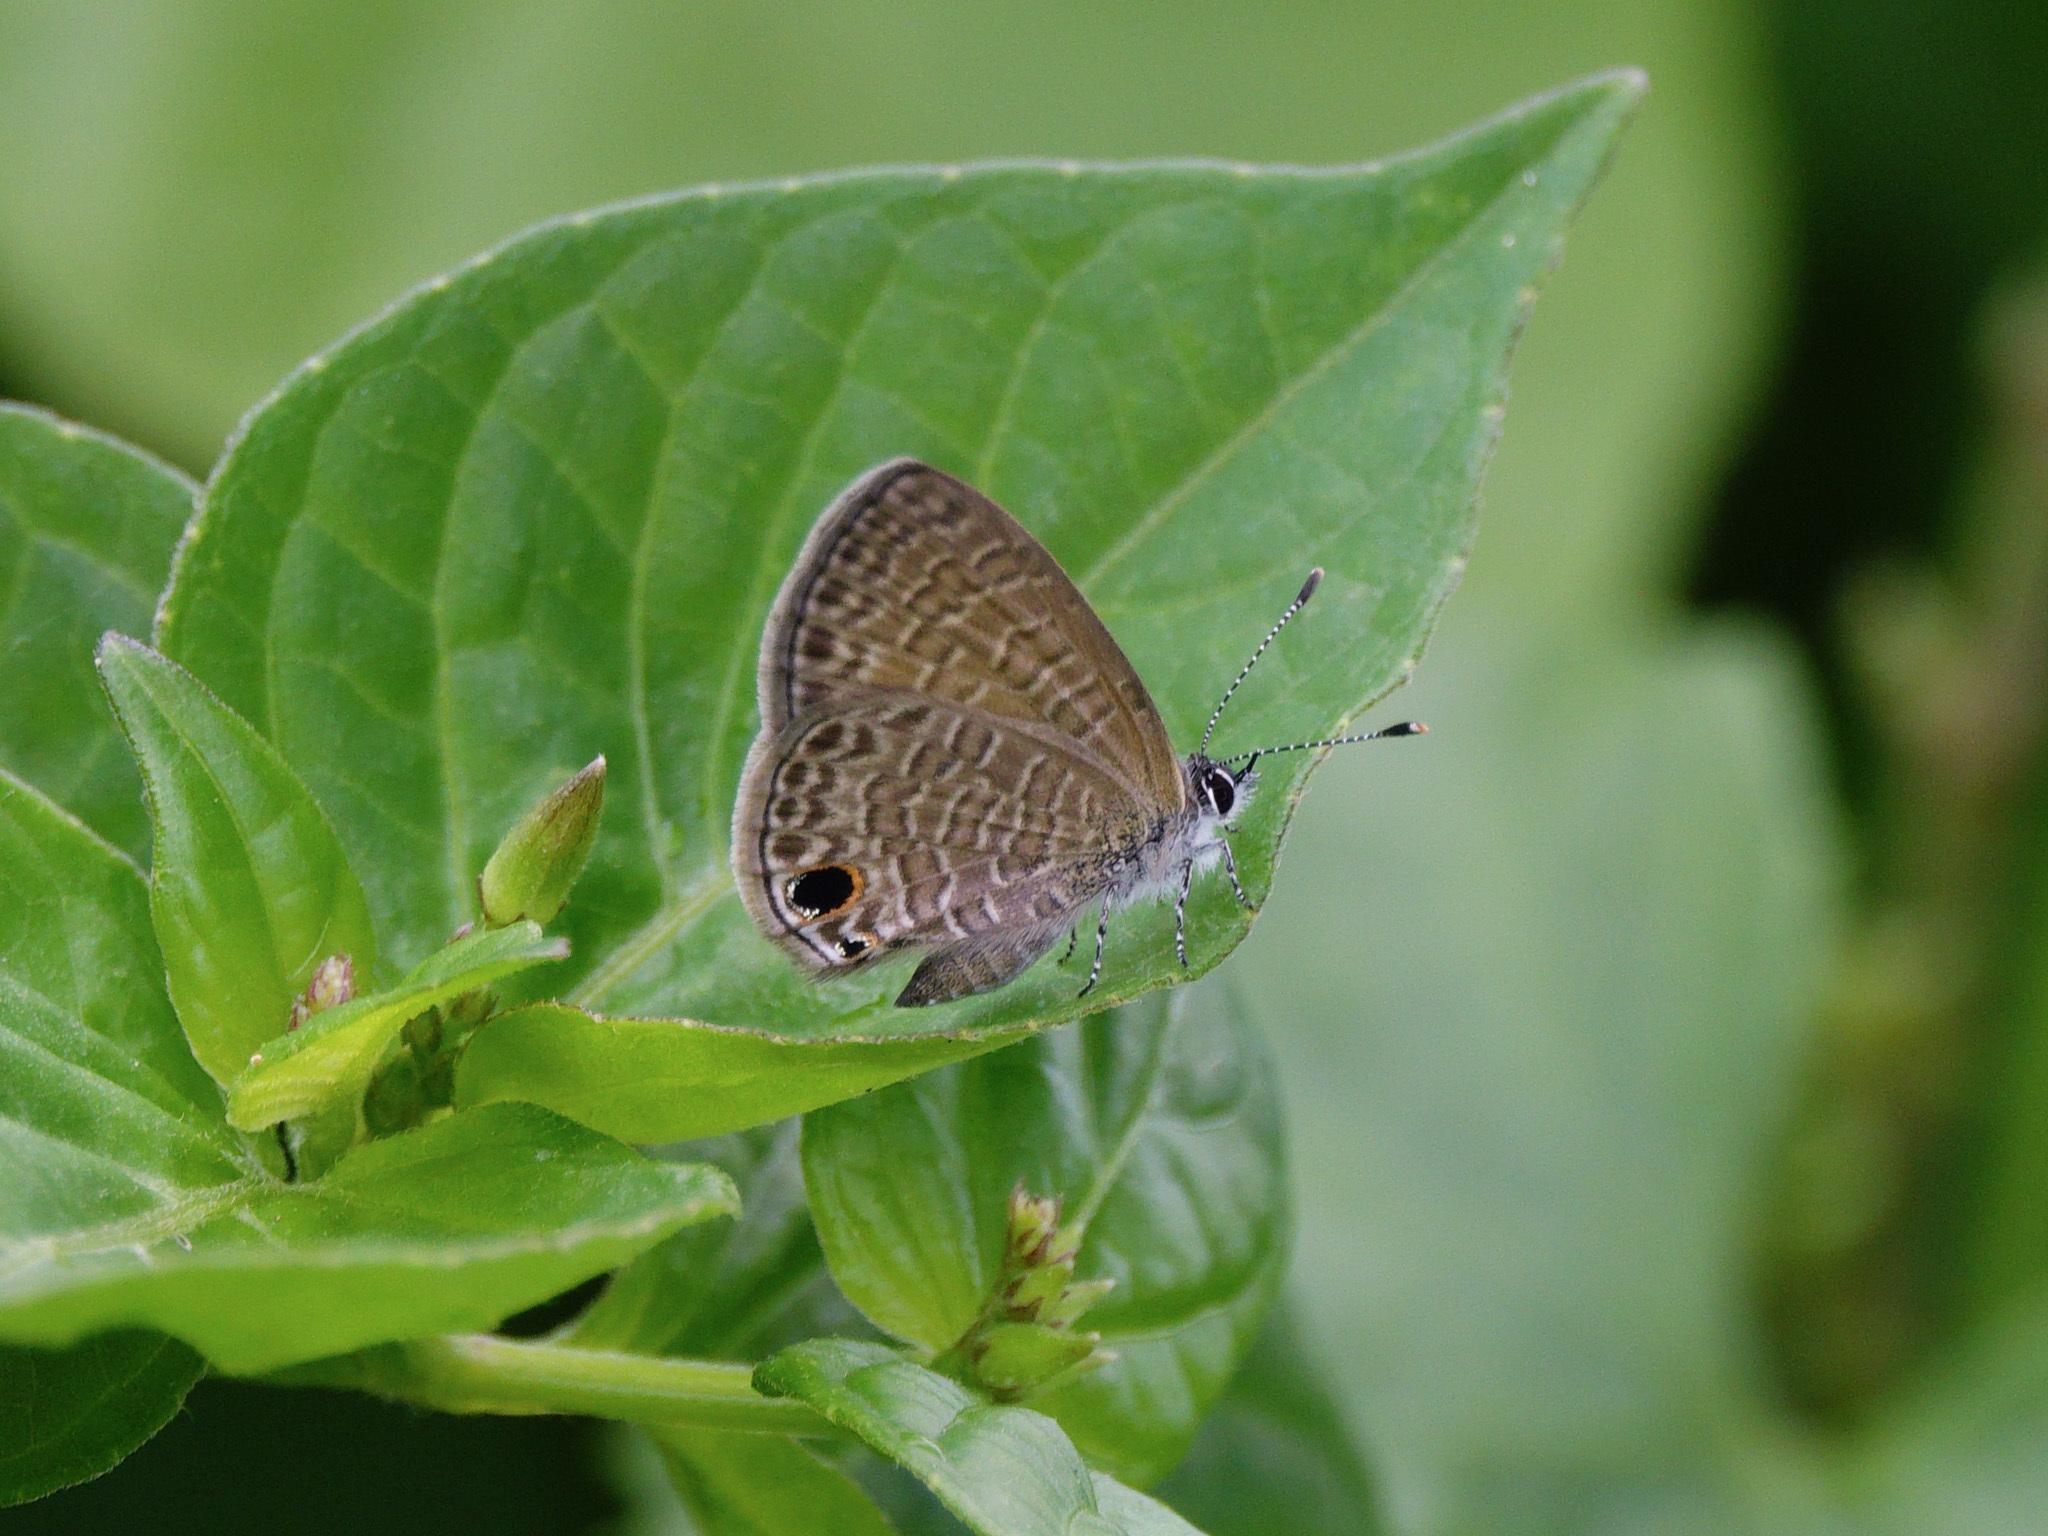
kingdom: Animalia
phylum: Arthropoda
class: Insecta
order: Lepidoptera
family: Lycaenidae
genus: Prosotas
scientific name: Prosotas dubiosa
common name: Tailless lineblue
